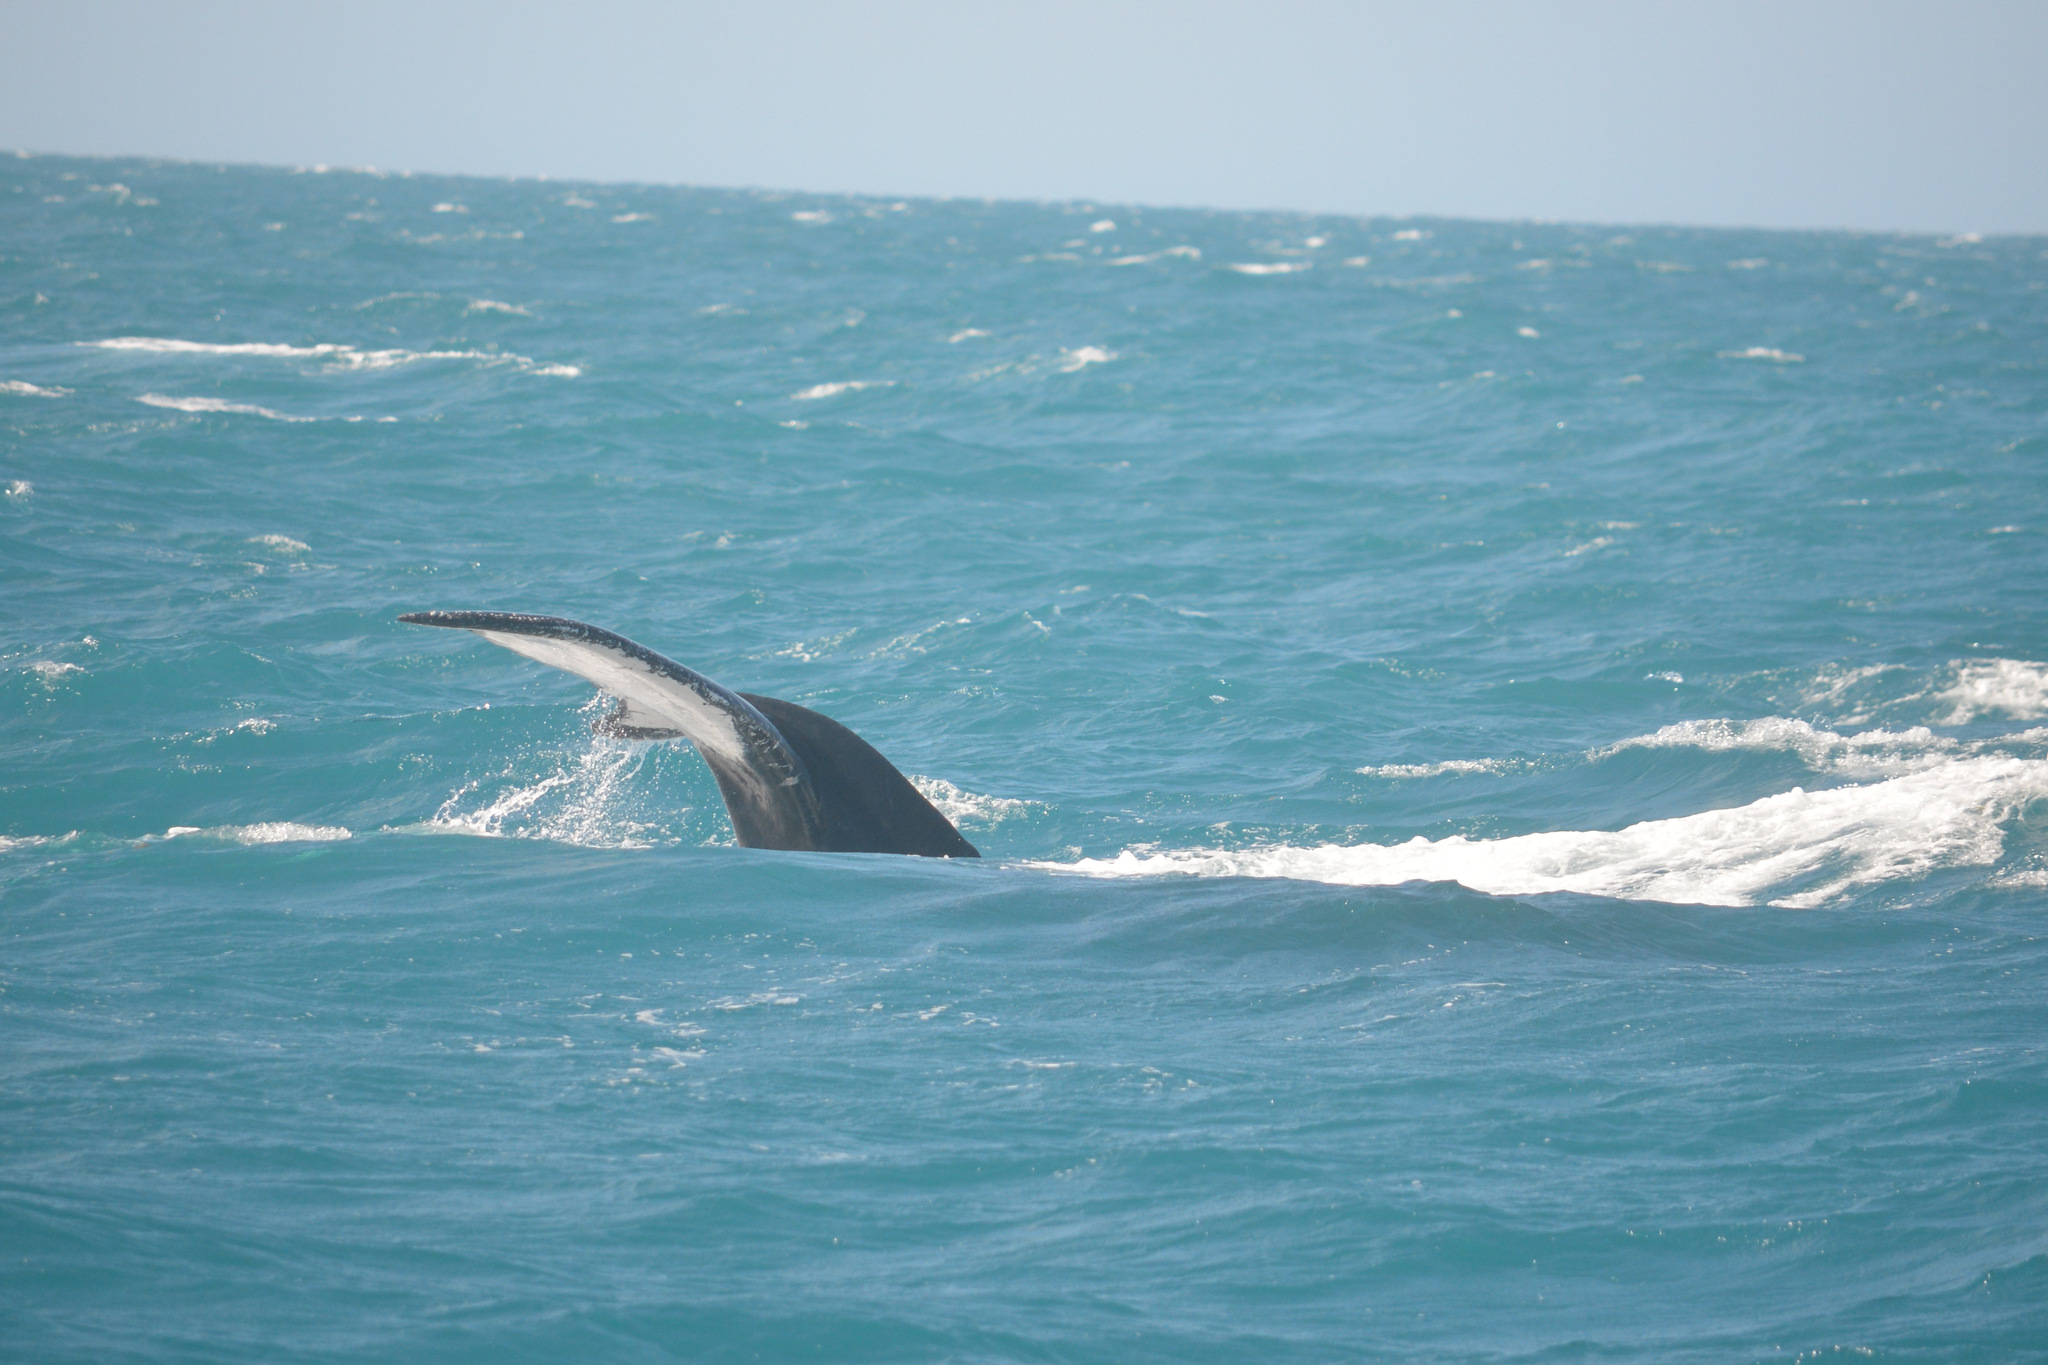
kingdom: Animalia
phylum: Chordata
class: Mammalia
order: Cetacea
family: Balaenopteridae
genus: Megaptera
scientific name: Megaptera novaeangliae
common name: Humpback whale
